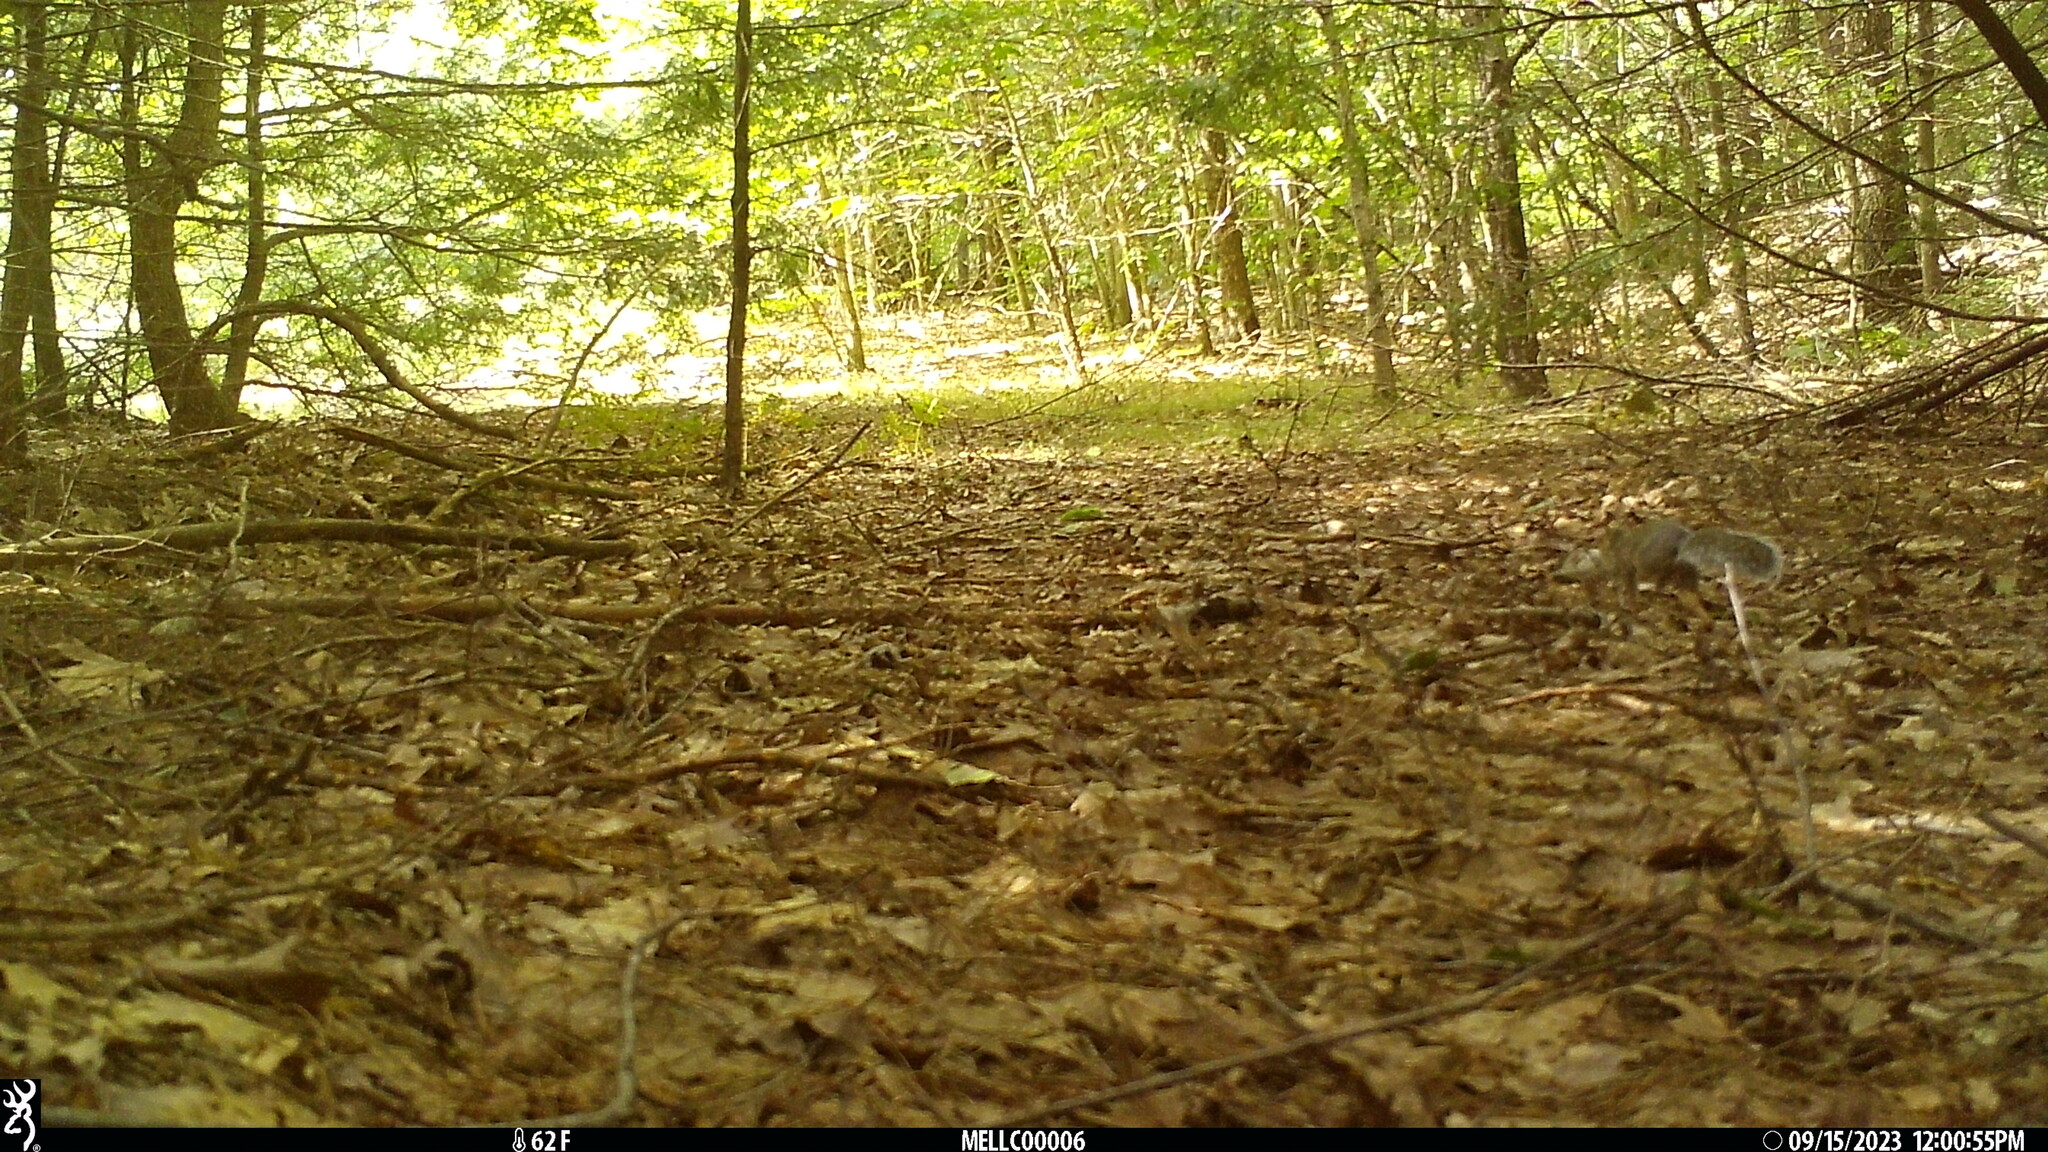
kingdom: Animalia
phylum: Chordata
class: Mammalia
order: Rodentia
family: Sciuridae
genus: Sciurus
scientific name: Sciurus carolinensis
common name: Eastern gray squirrel
